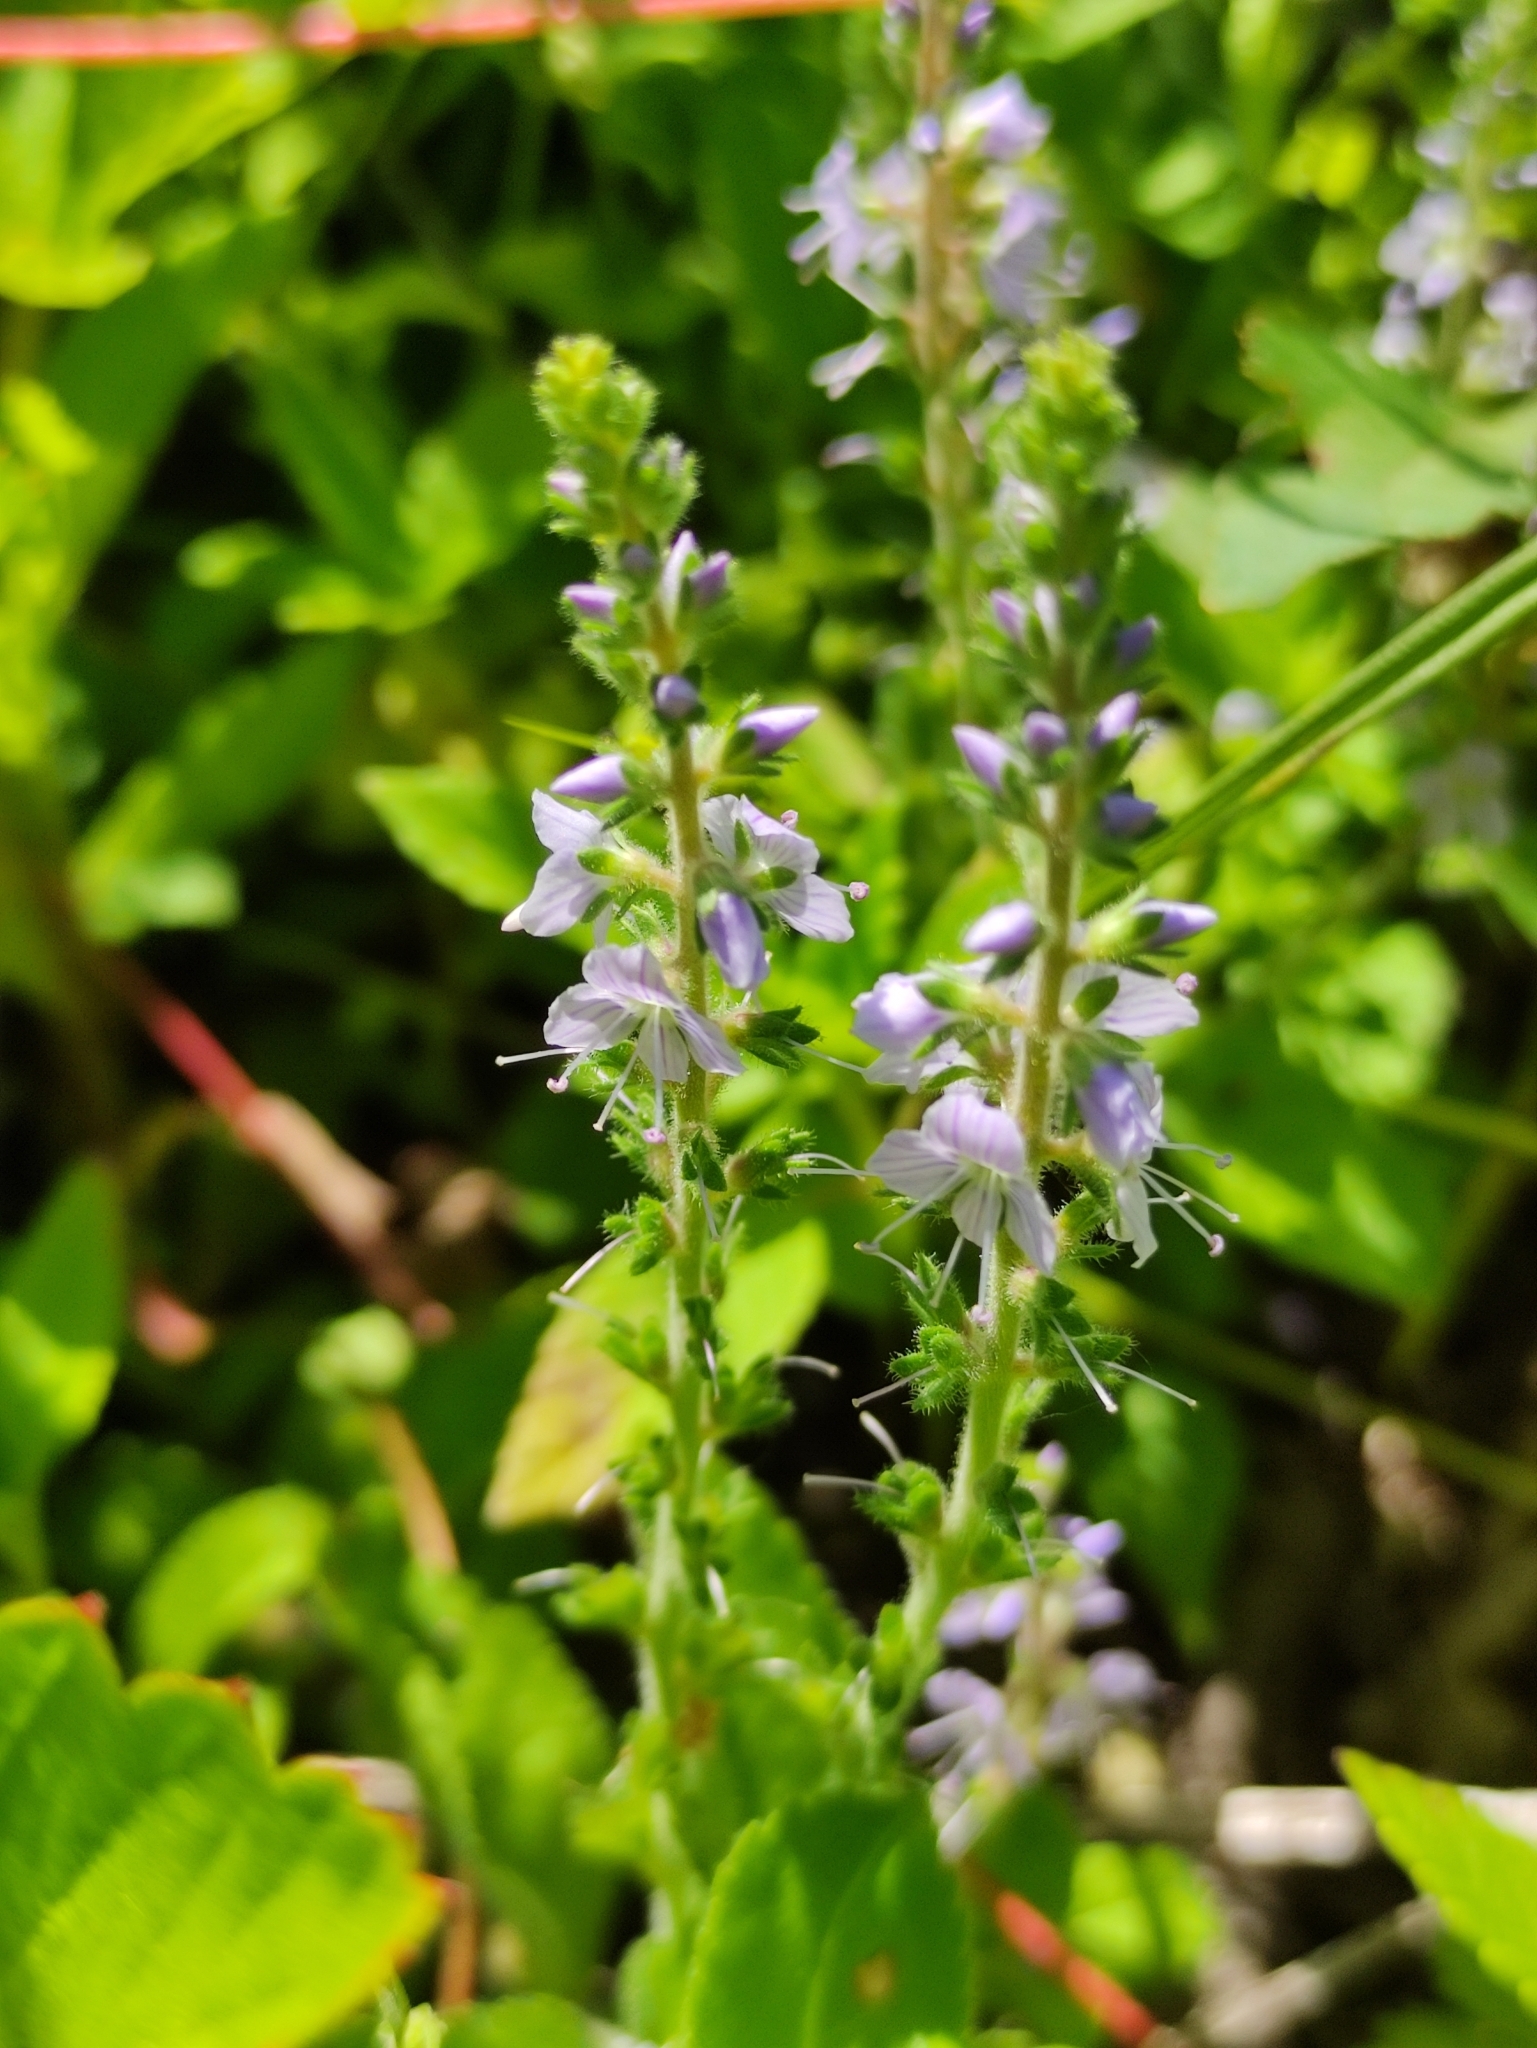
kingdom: Plantae
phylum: Tracheophyta
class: Magnoliopsida
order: Lamiales
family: Plantaginaceae
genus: Veronica
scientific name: Veronica officinalis
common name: Common speedwell
